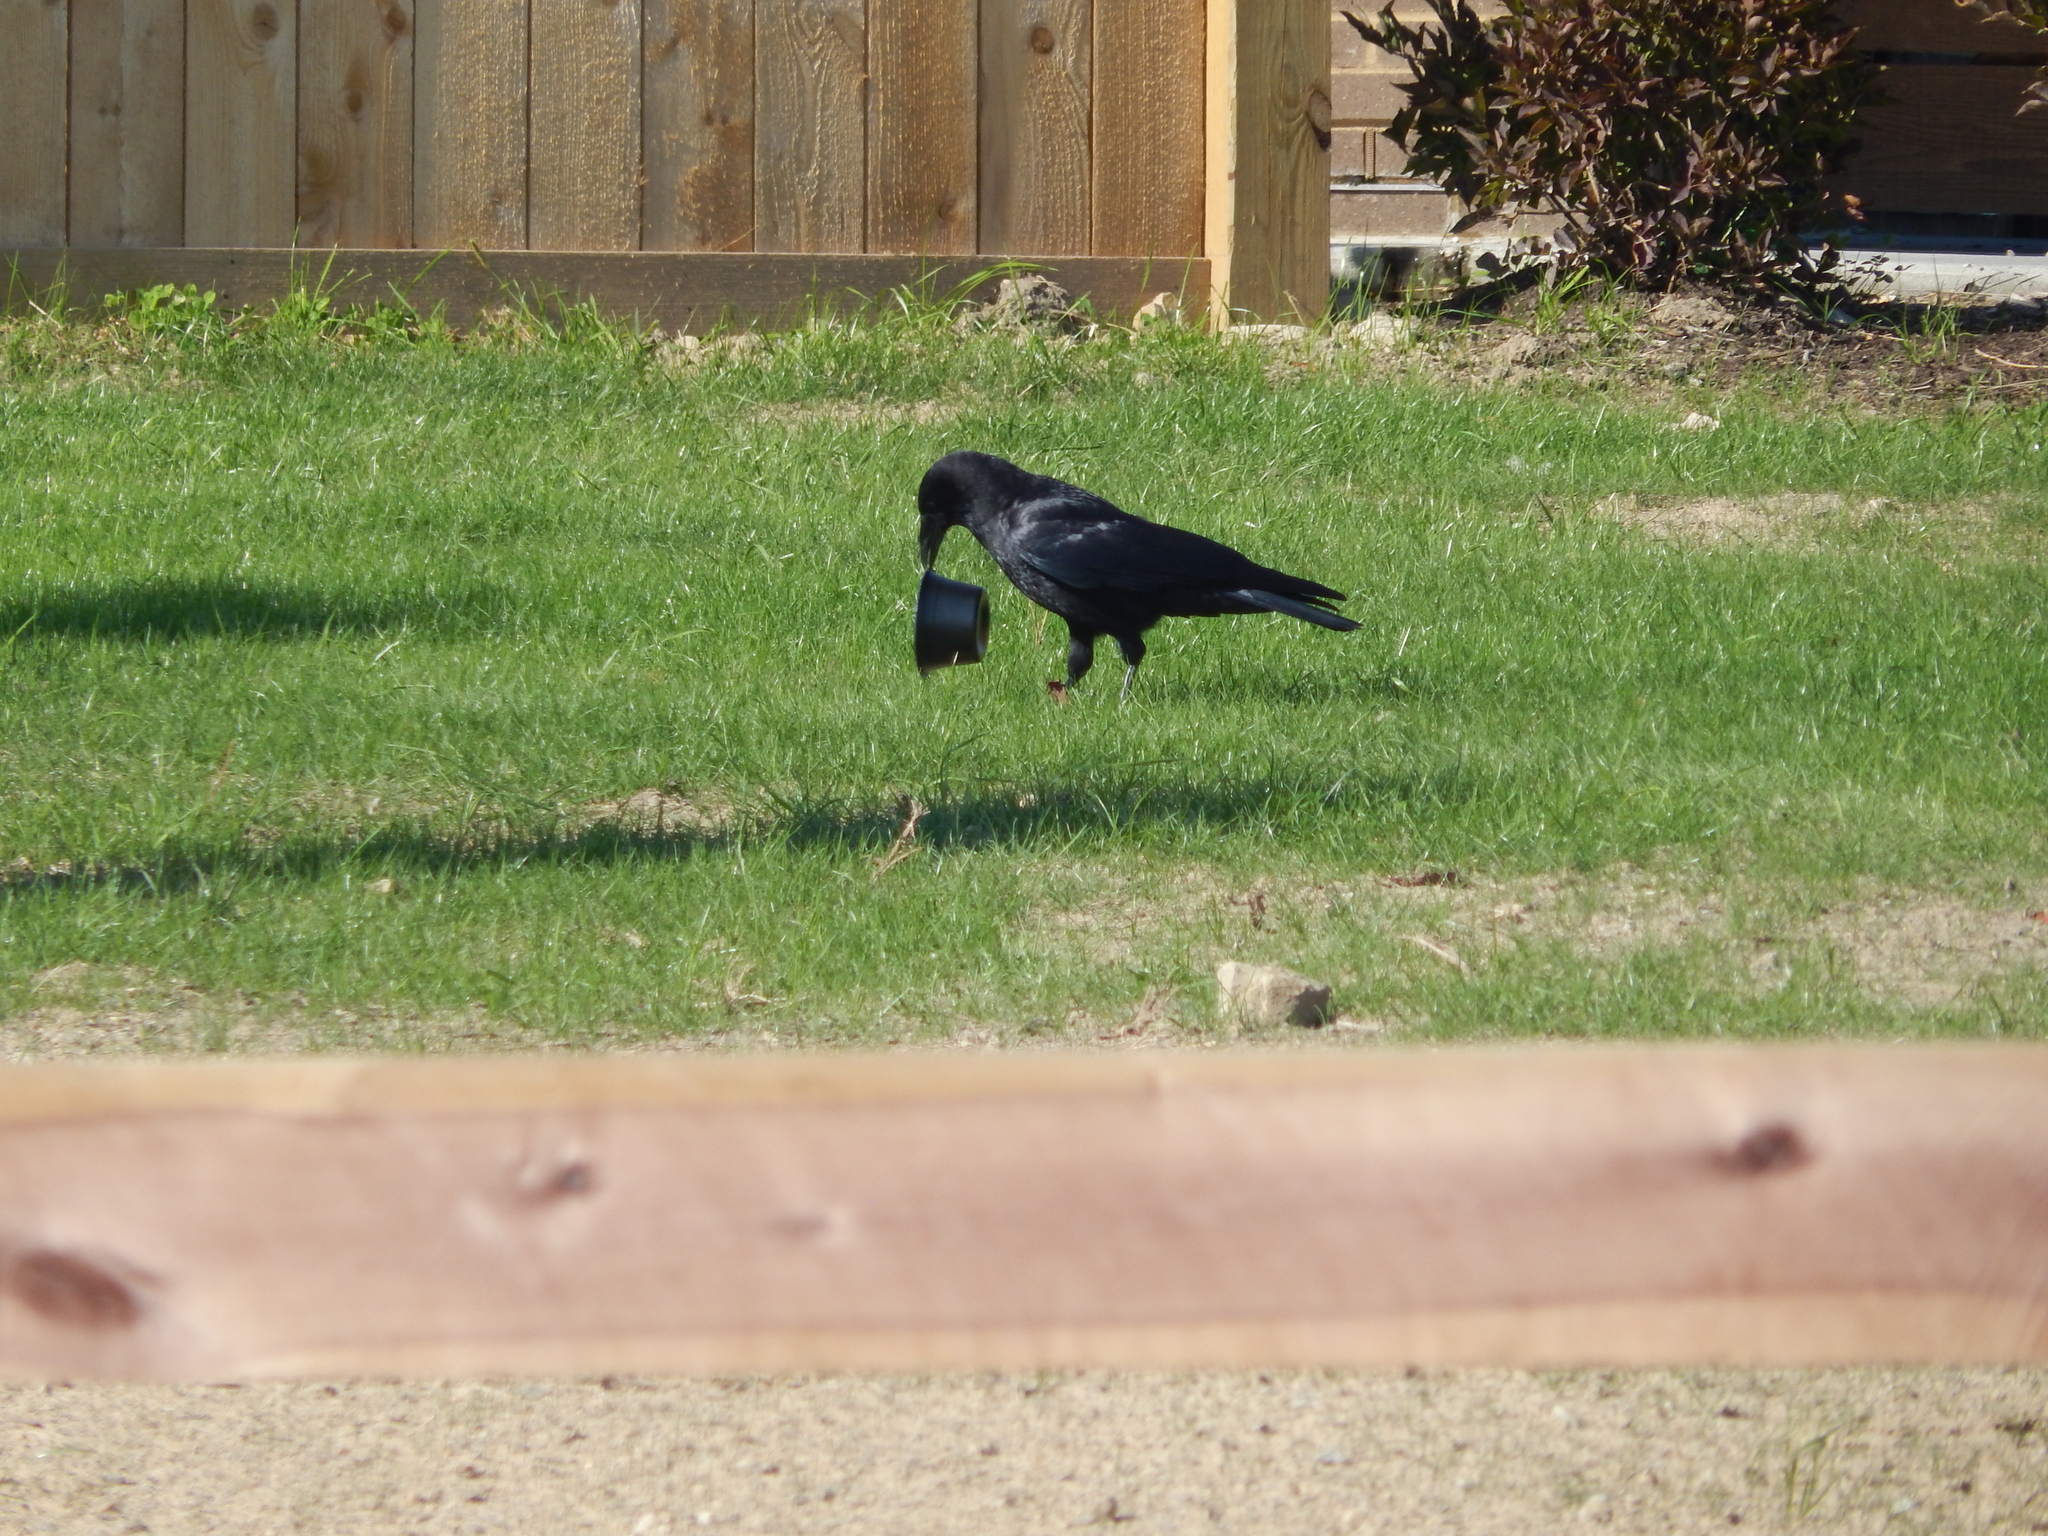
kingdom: Animalia
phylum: Chordata
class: Aves
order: Passeriformes
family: Corvidae
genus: Corvus
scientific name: Corvus brachyrhynchos
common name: American crow
